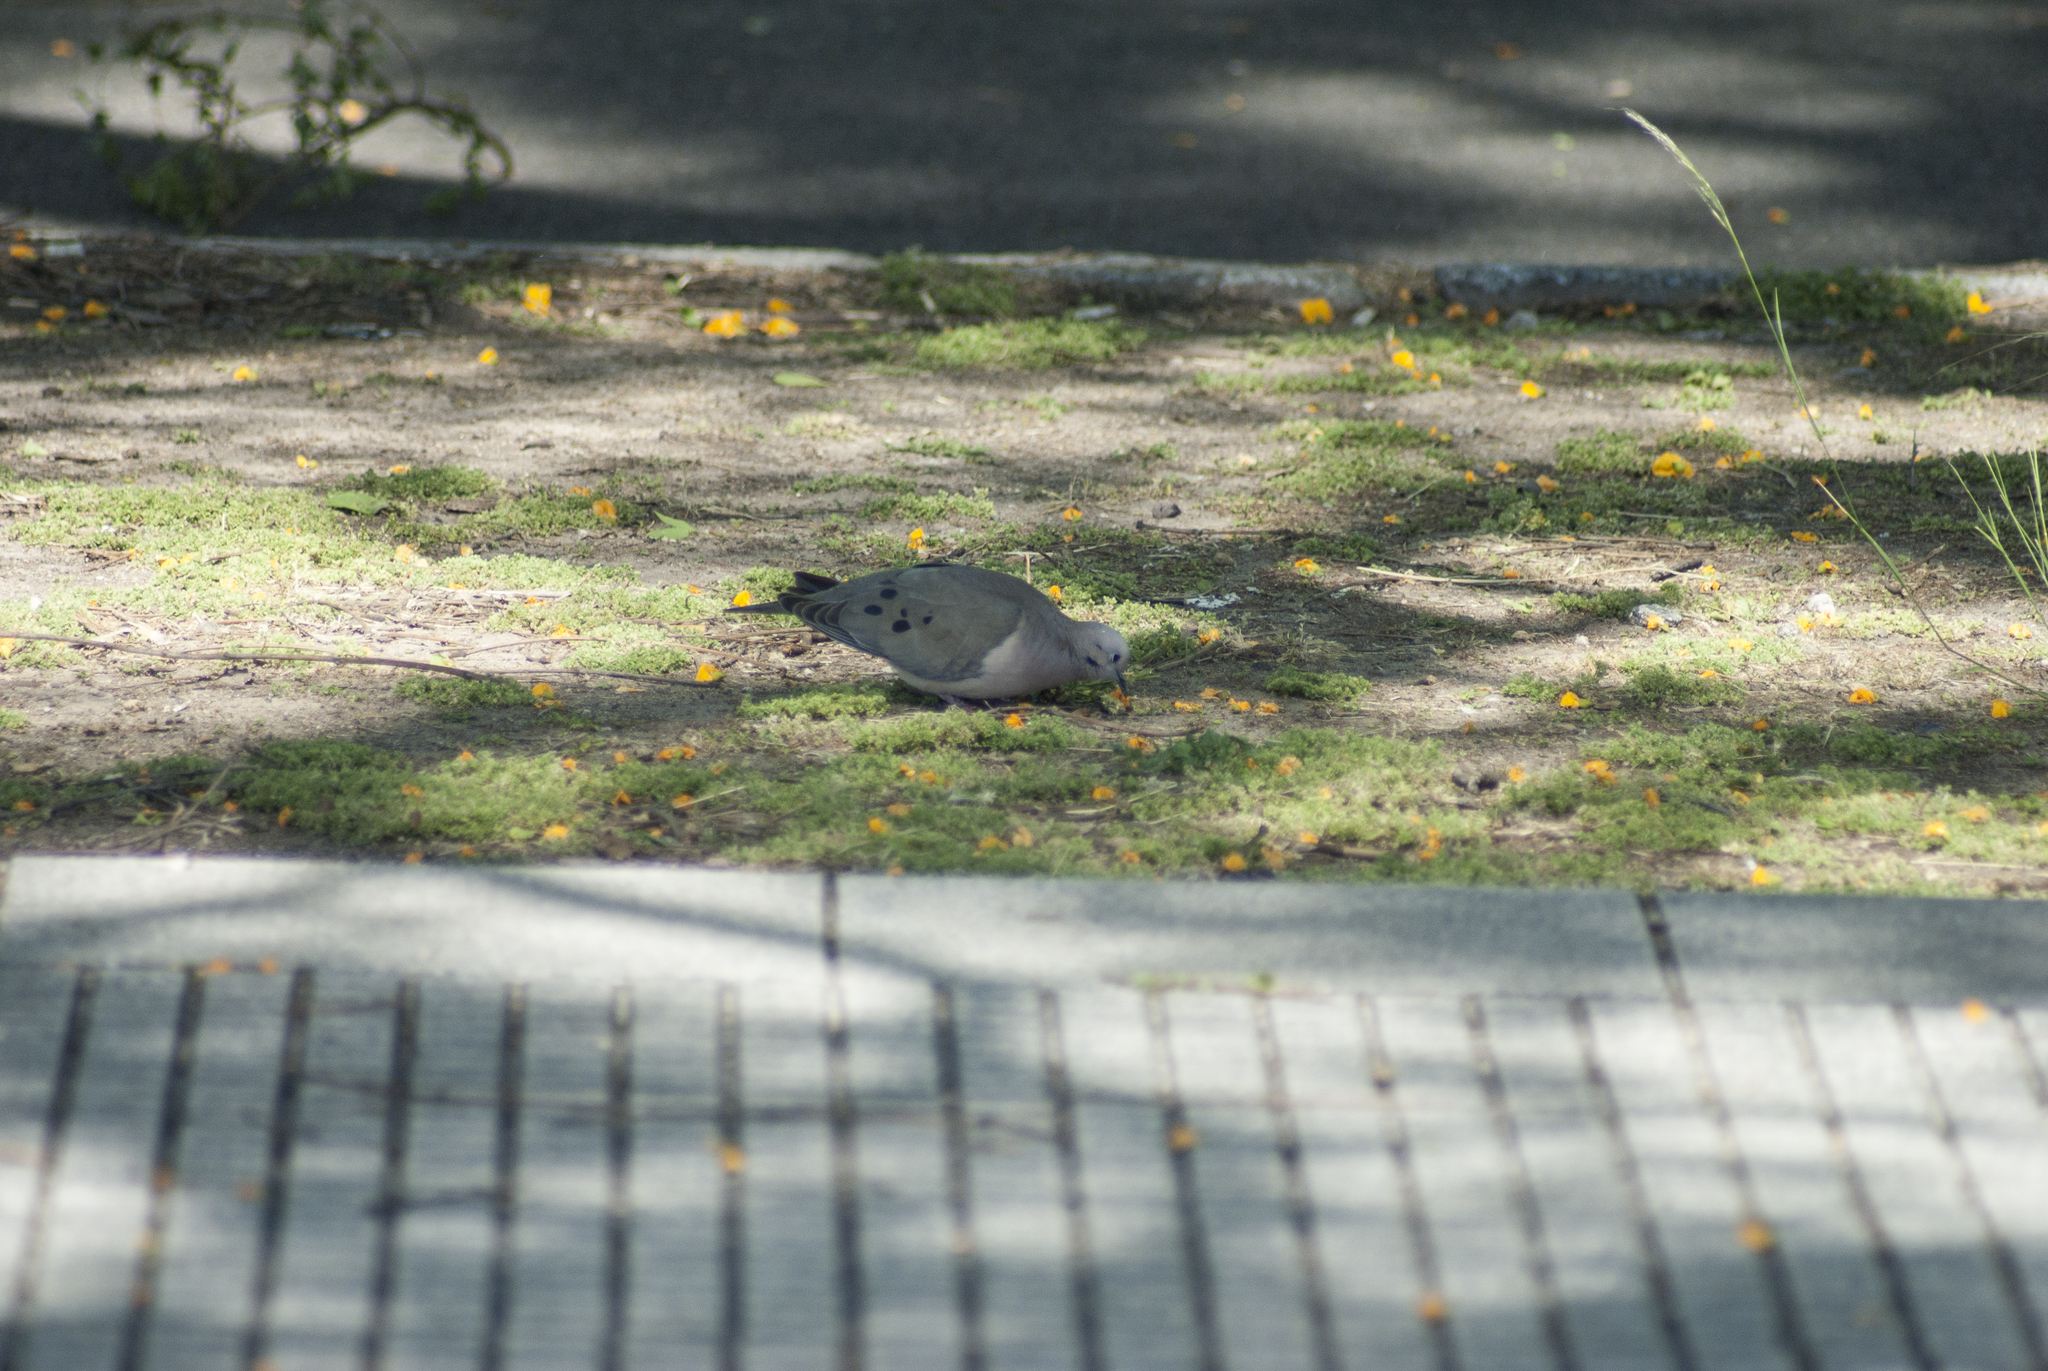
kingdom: Animalia
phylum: Chordata
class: Aves
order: Columbiformes
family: Columbidae
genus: Zenaida
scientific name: Zenaida auriculata
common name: Eared dove
